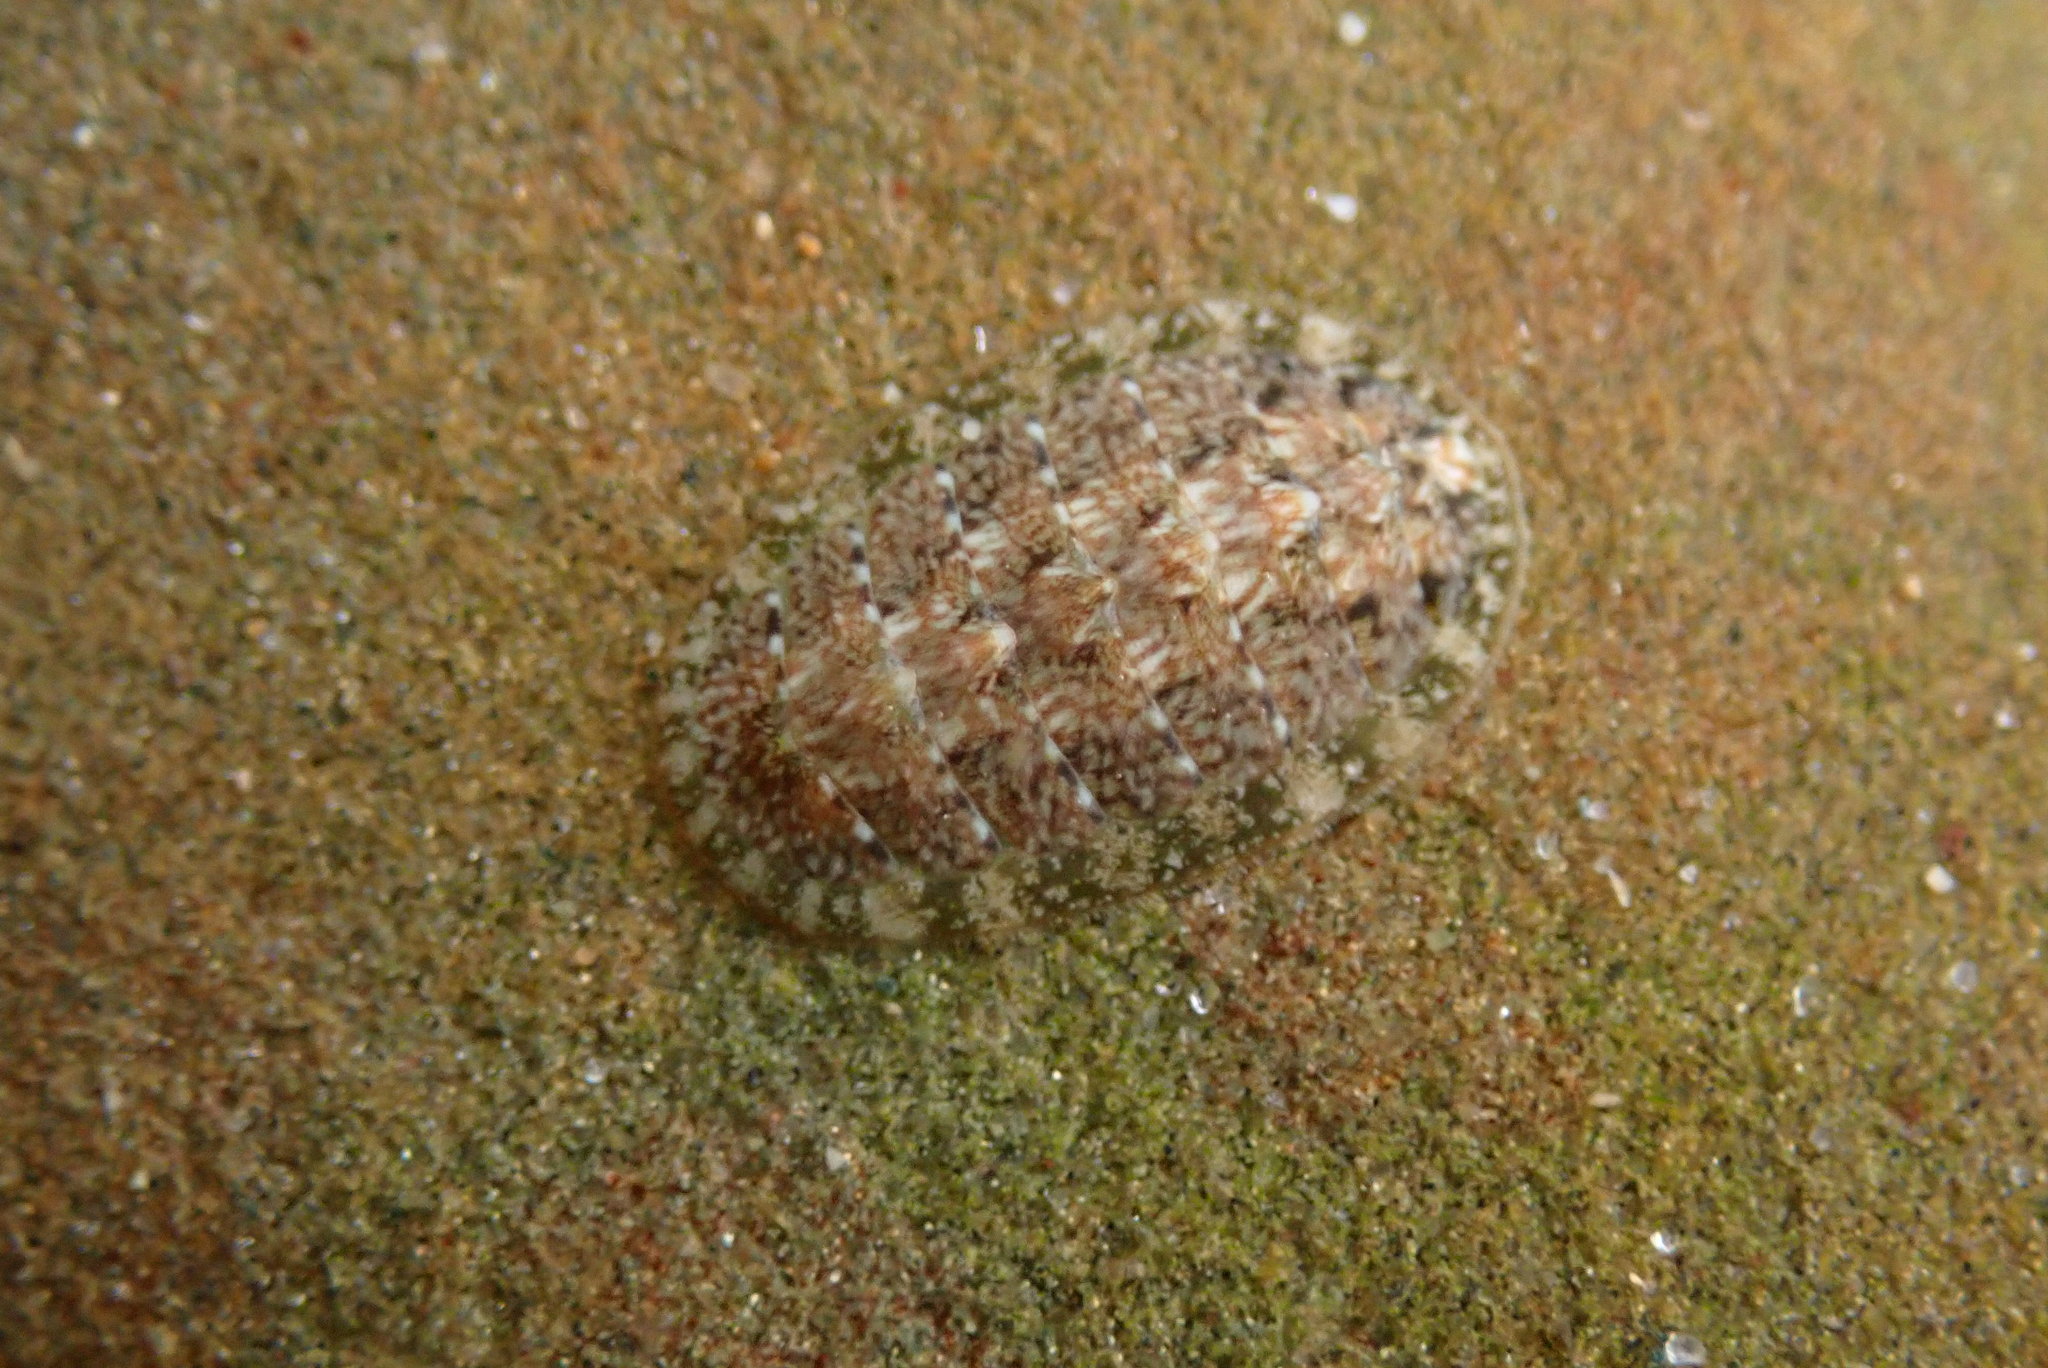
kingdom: Animalia
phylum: Mollusca
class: Polyplacophora
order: Chitonida
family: Tonicellidae
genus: Cyanoplax
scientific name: Cyanoplax keepiana
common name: Keep's chiton
